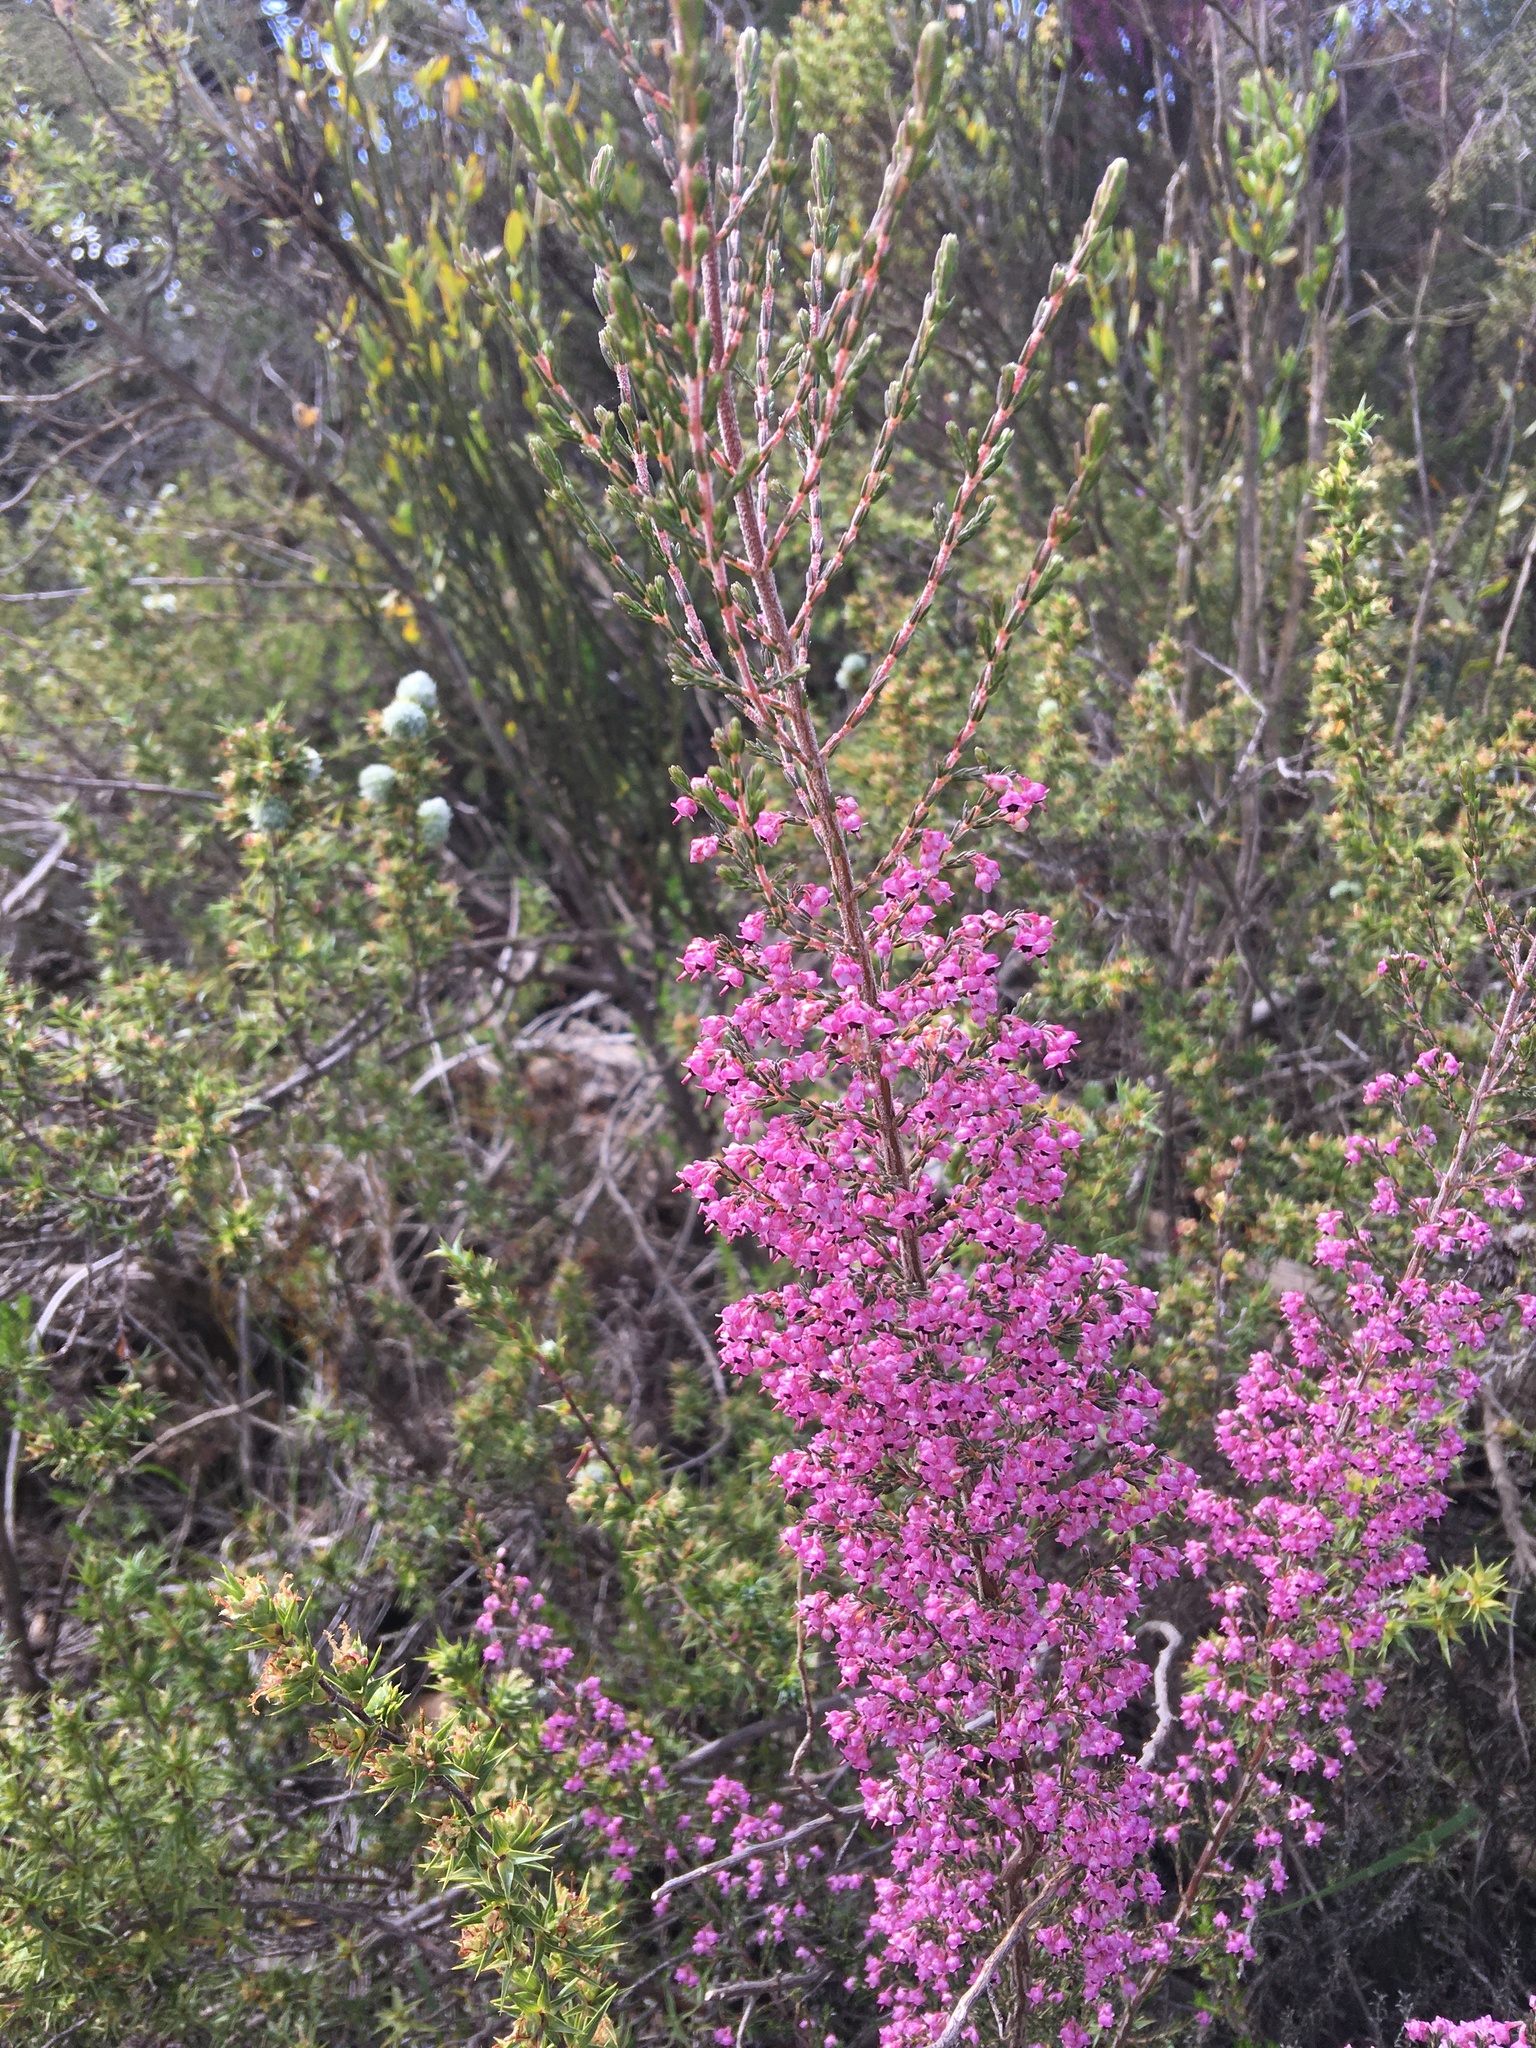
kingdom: Plantae
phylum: Tracheophyta
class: Magnoliopsida
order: Ericales
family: Ericaceae
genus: Erica
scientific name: Erica lucida
